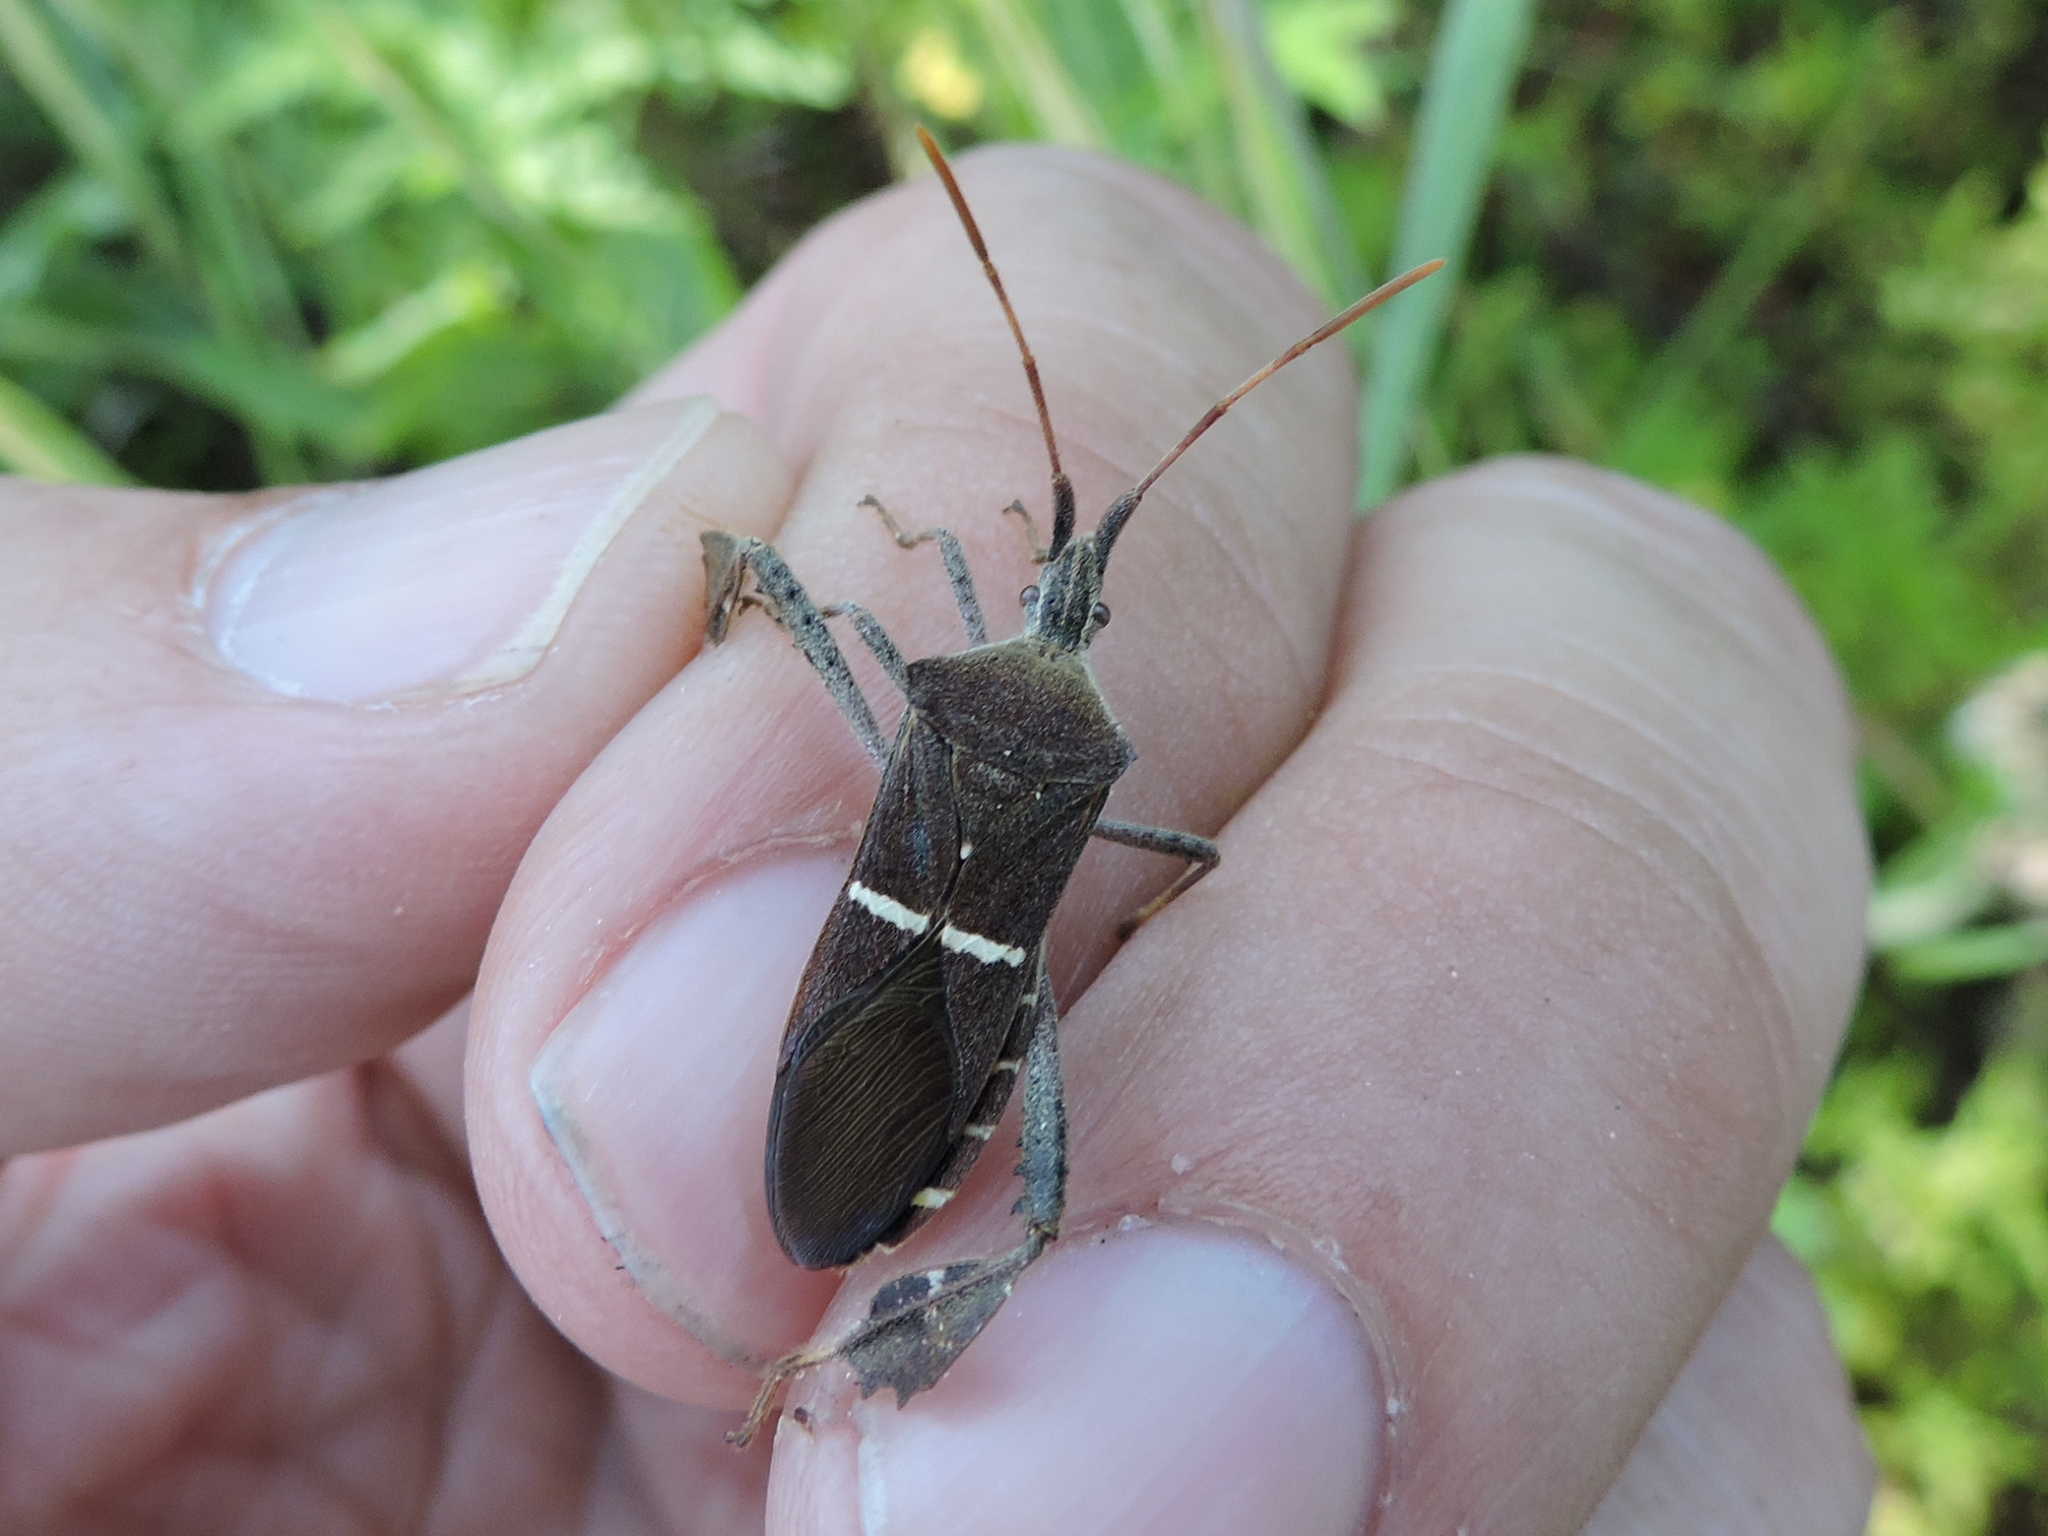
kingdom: Animalia
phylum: Arthropoda
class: Insecta
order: Hemiptera
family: Coreidae
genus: Leptoglossus
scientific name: Leptoglossus phyllopus
